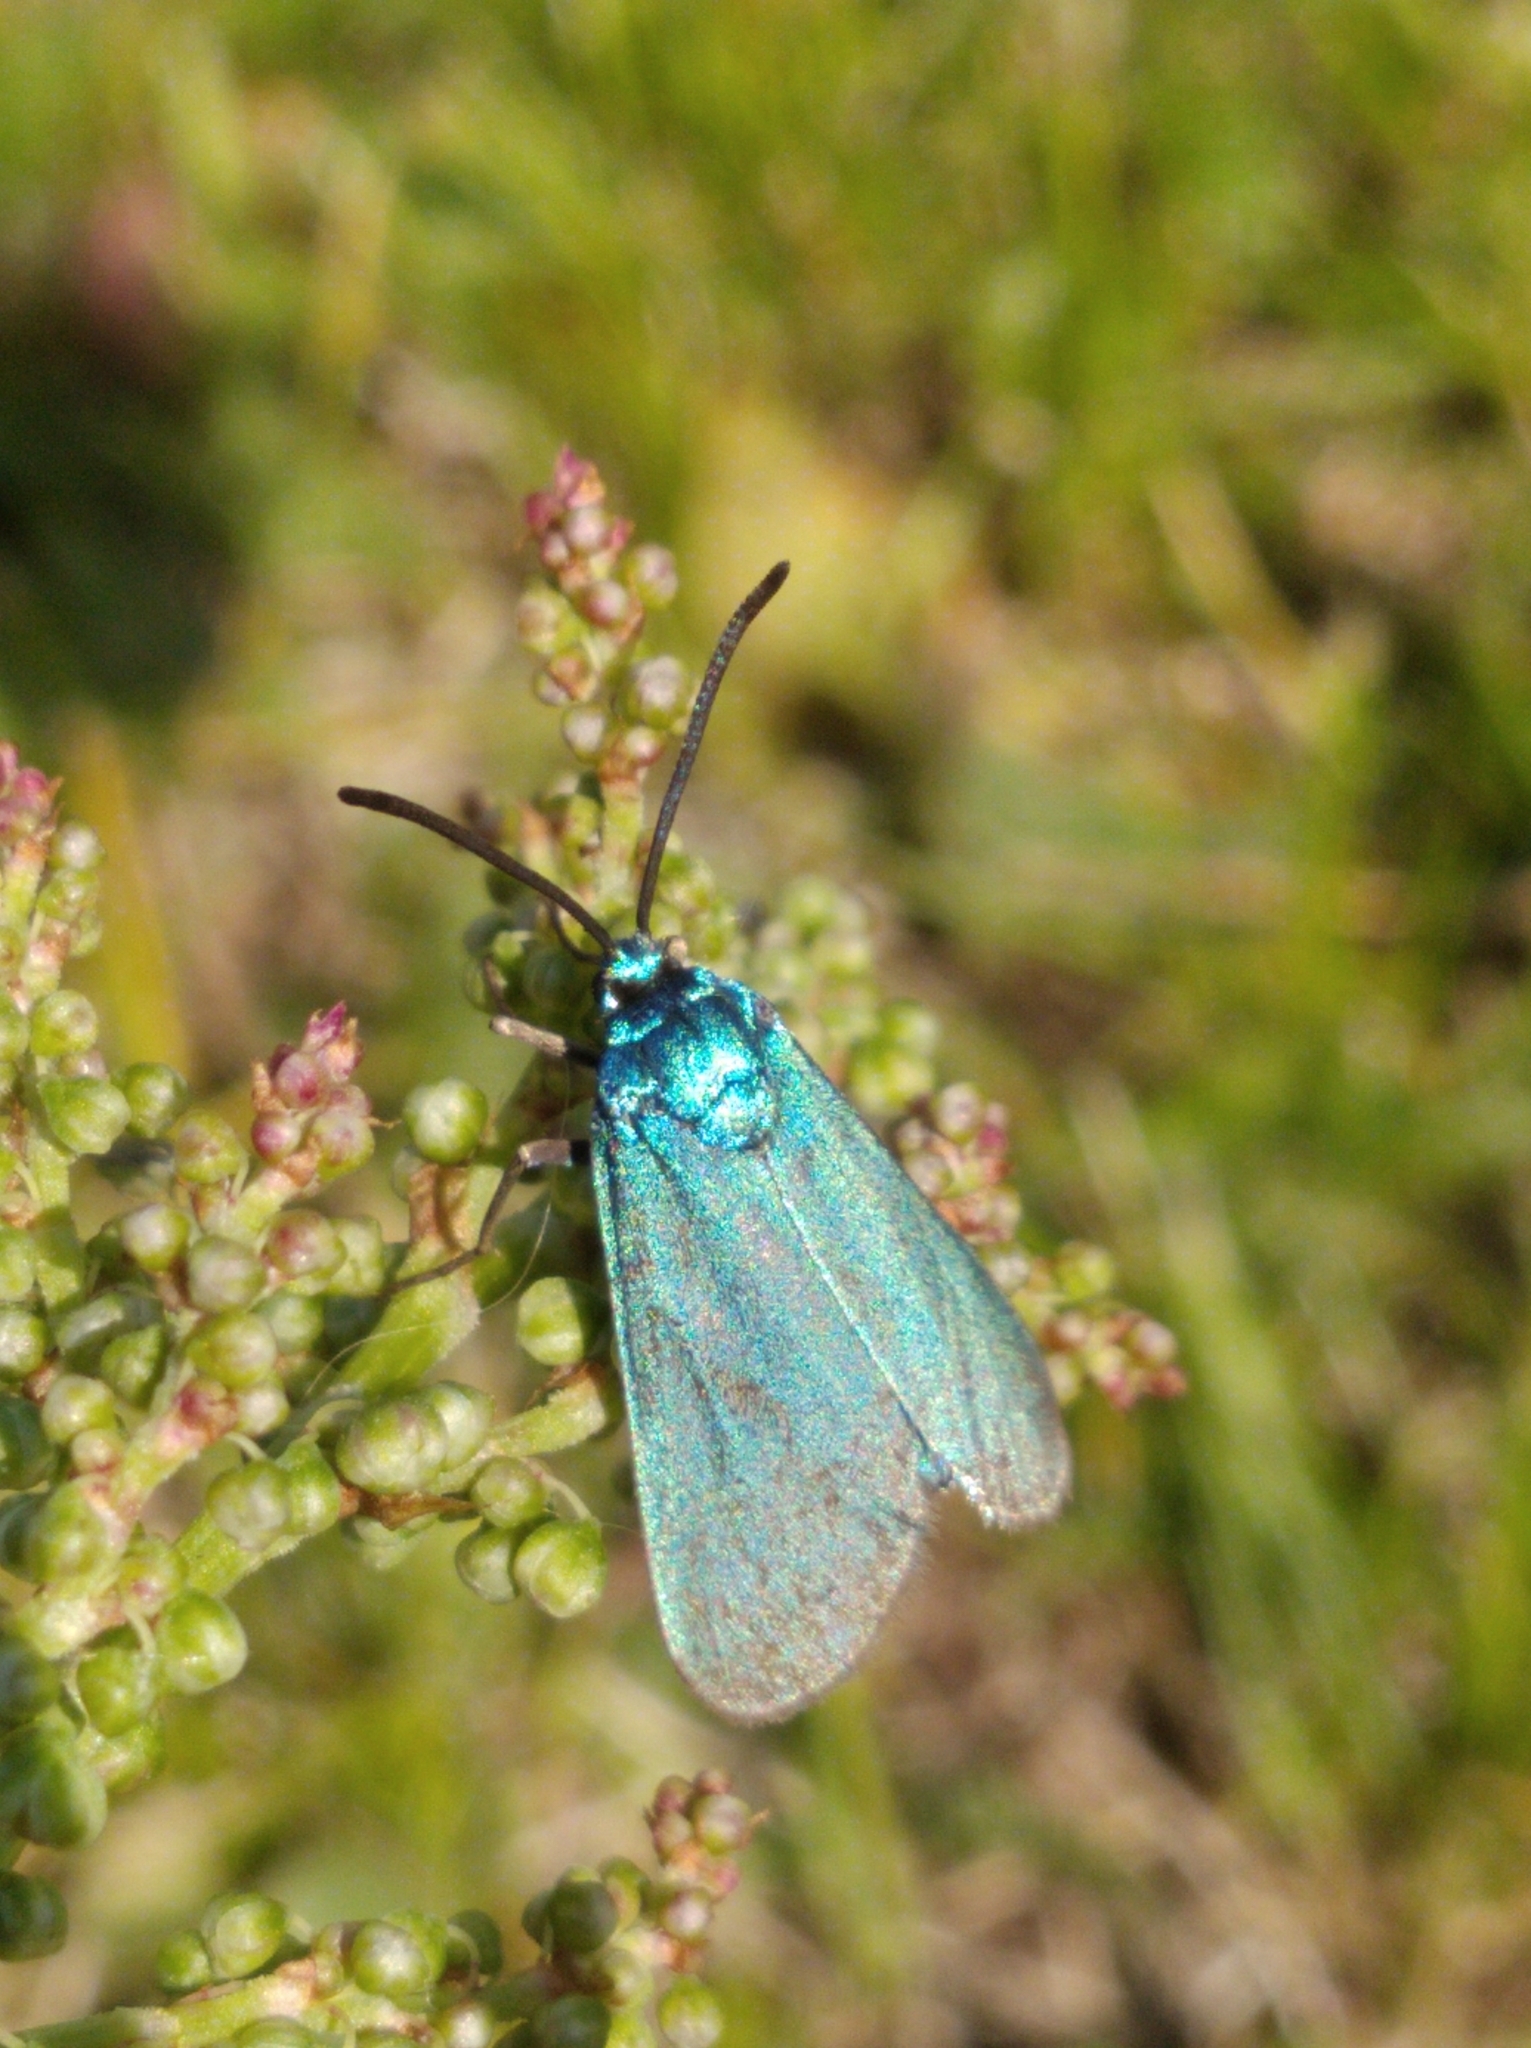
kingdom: Animalia
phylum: Arthropoda
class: Insecta
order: Lepidoptera
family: Zygaenidae
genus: Adscita
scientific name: Adscita statices
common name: Forester
